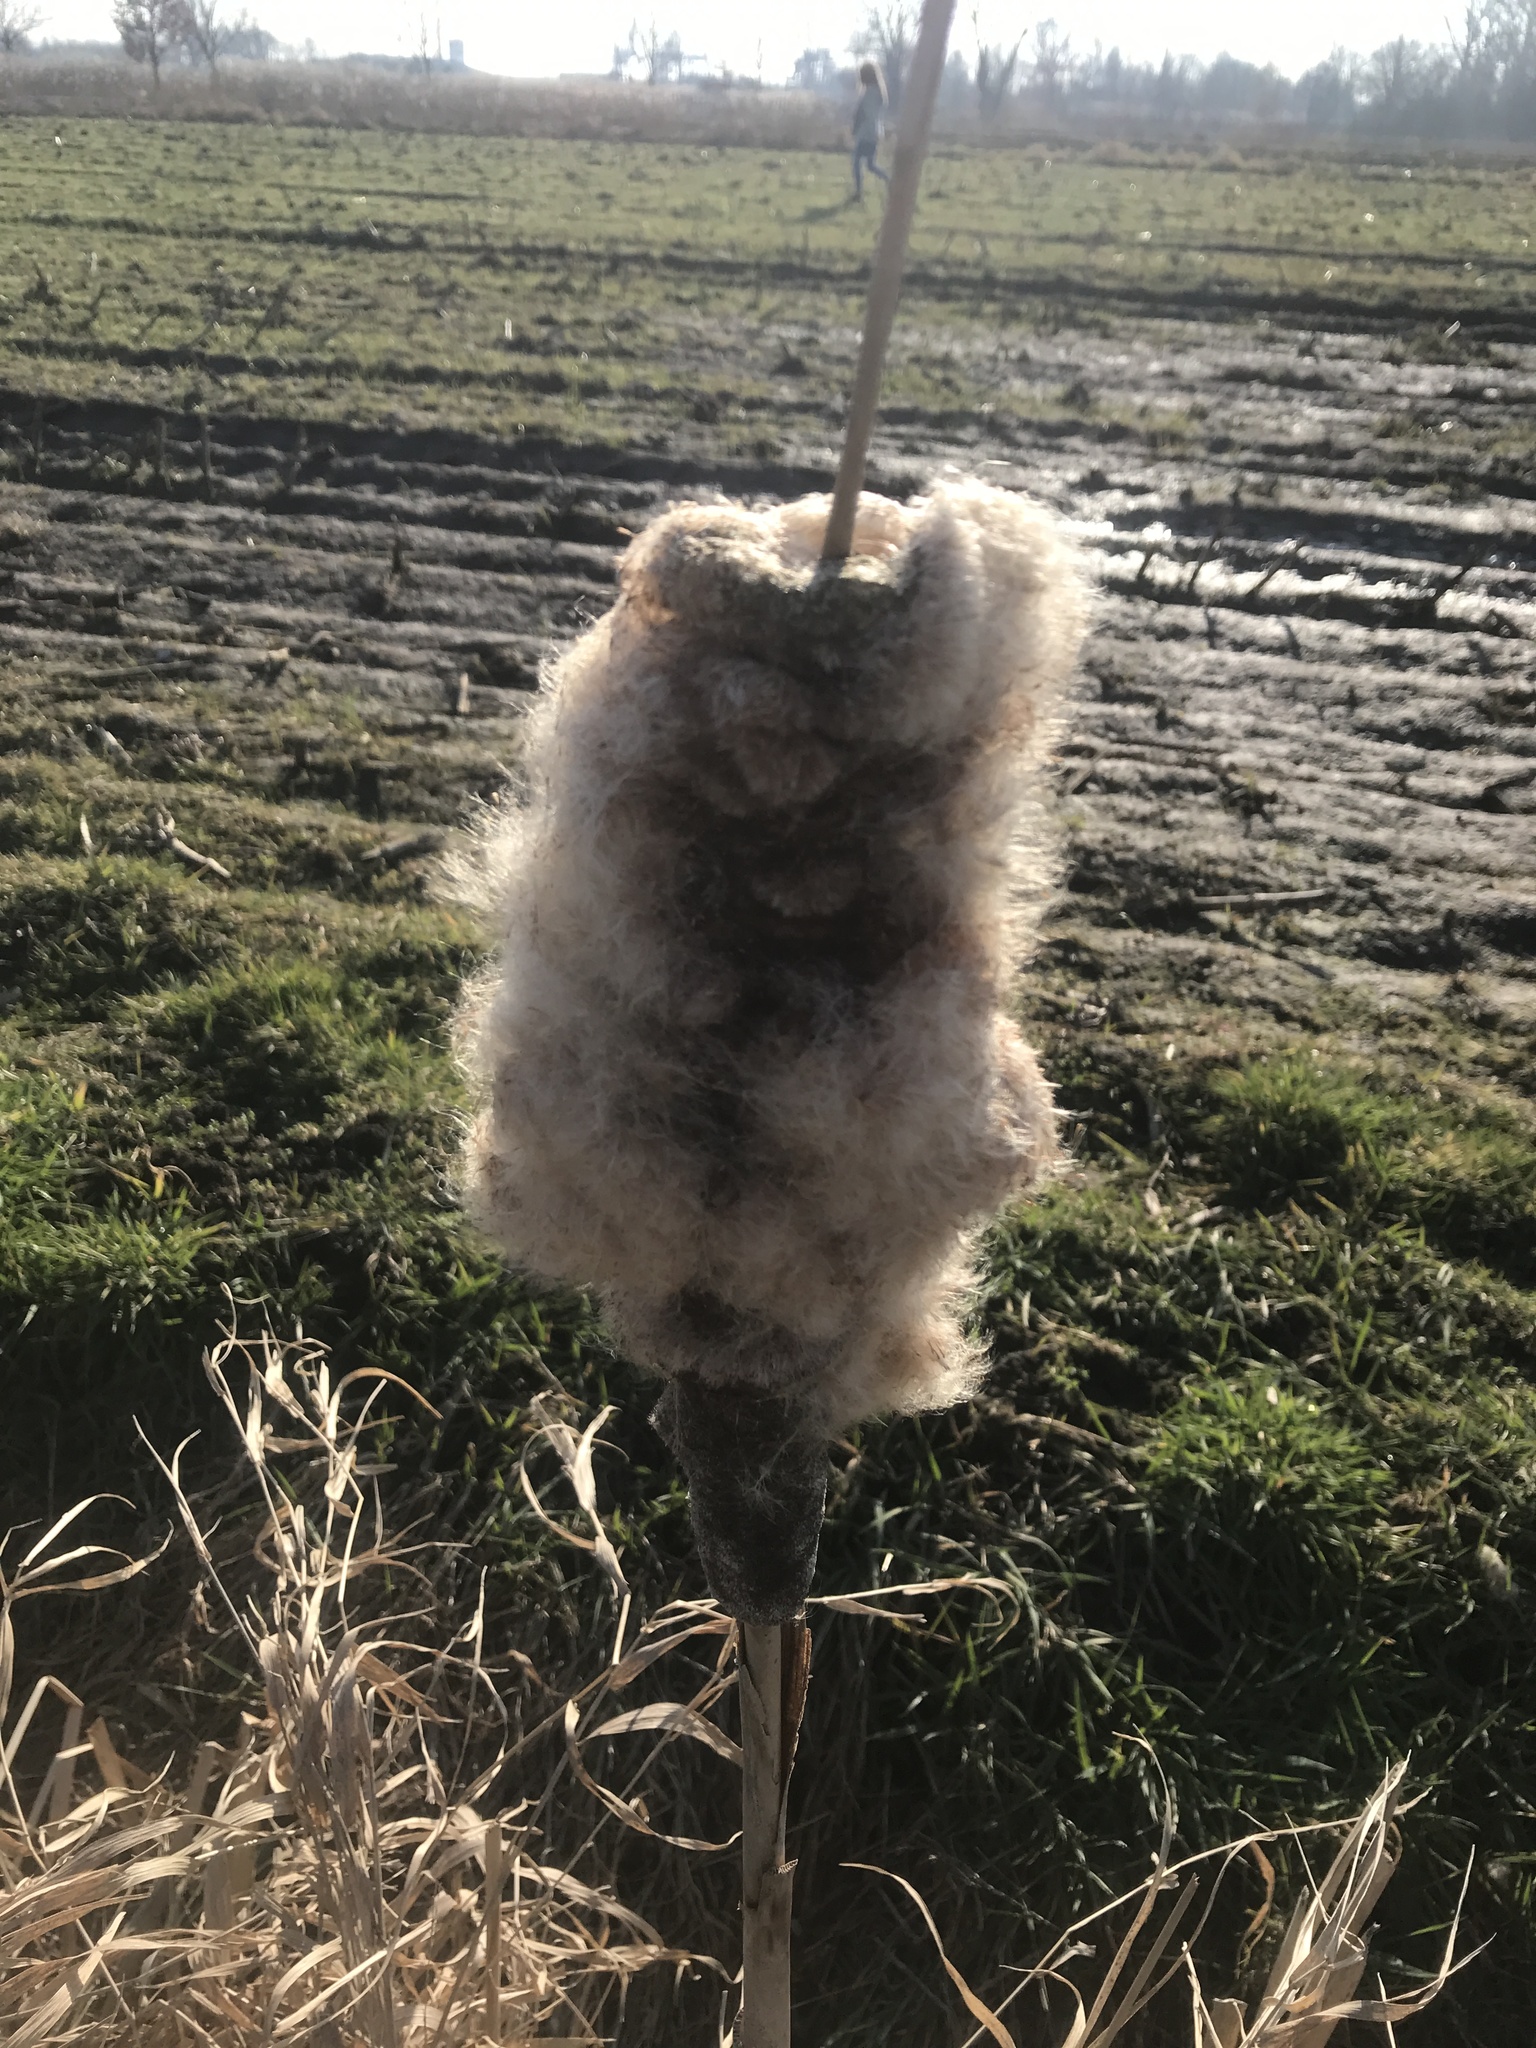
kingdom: Plantae
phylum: Tracheophyta
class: Liliopsida
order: Poales
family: Typhaceae
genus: Typha
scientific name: Typha latifolia
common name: Broadleaf cattail
